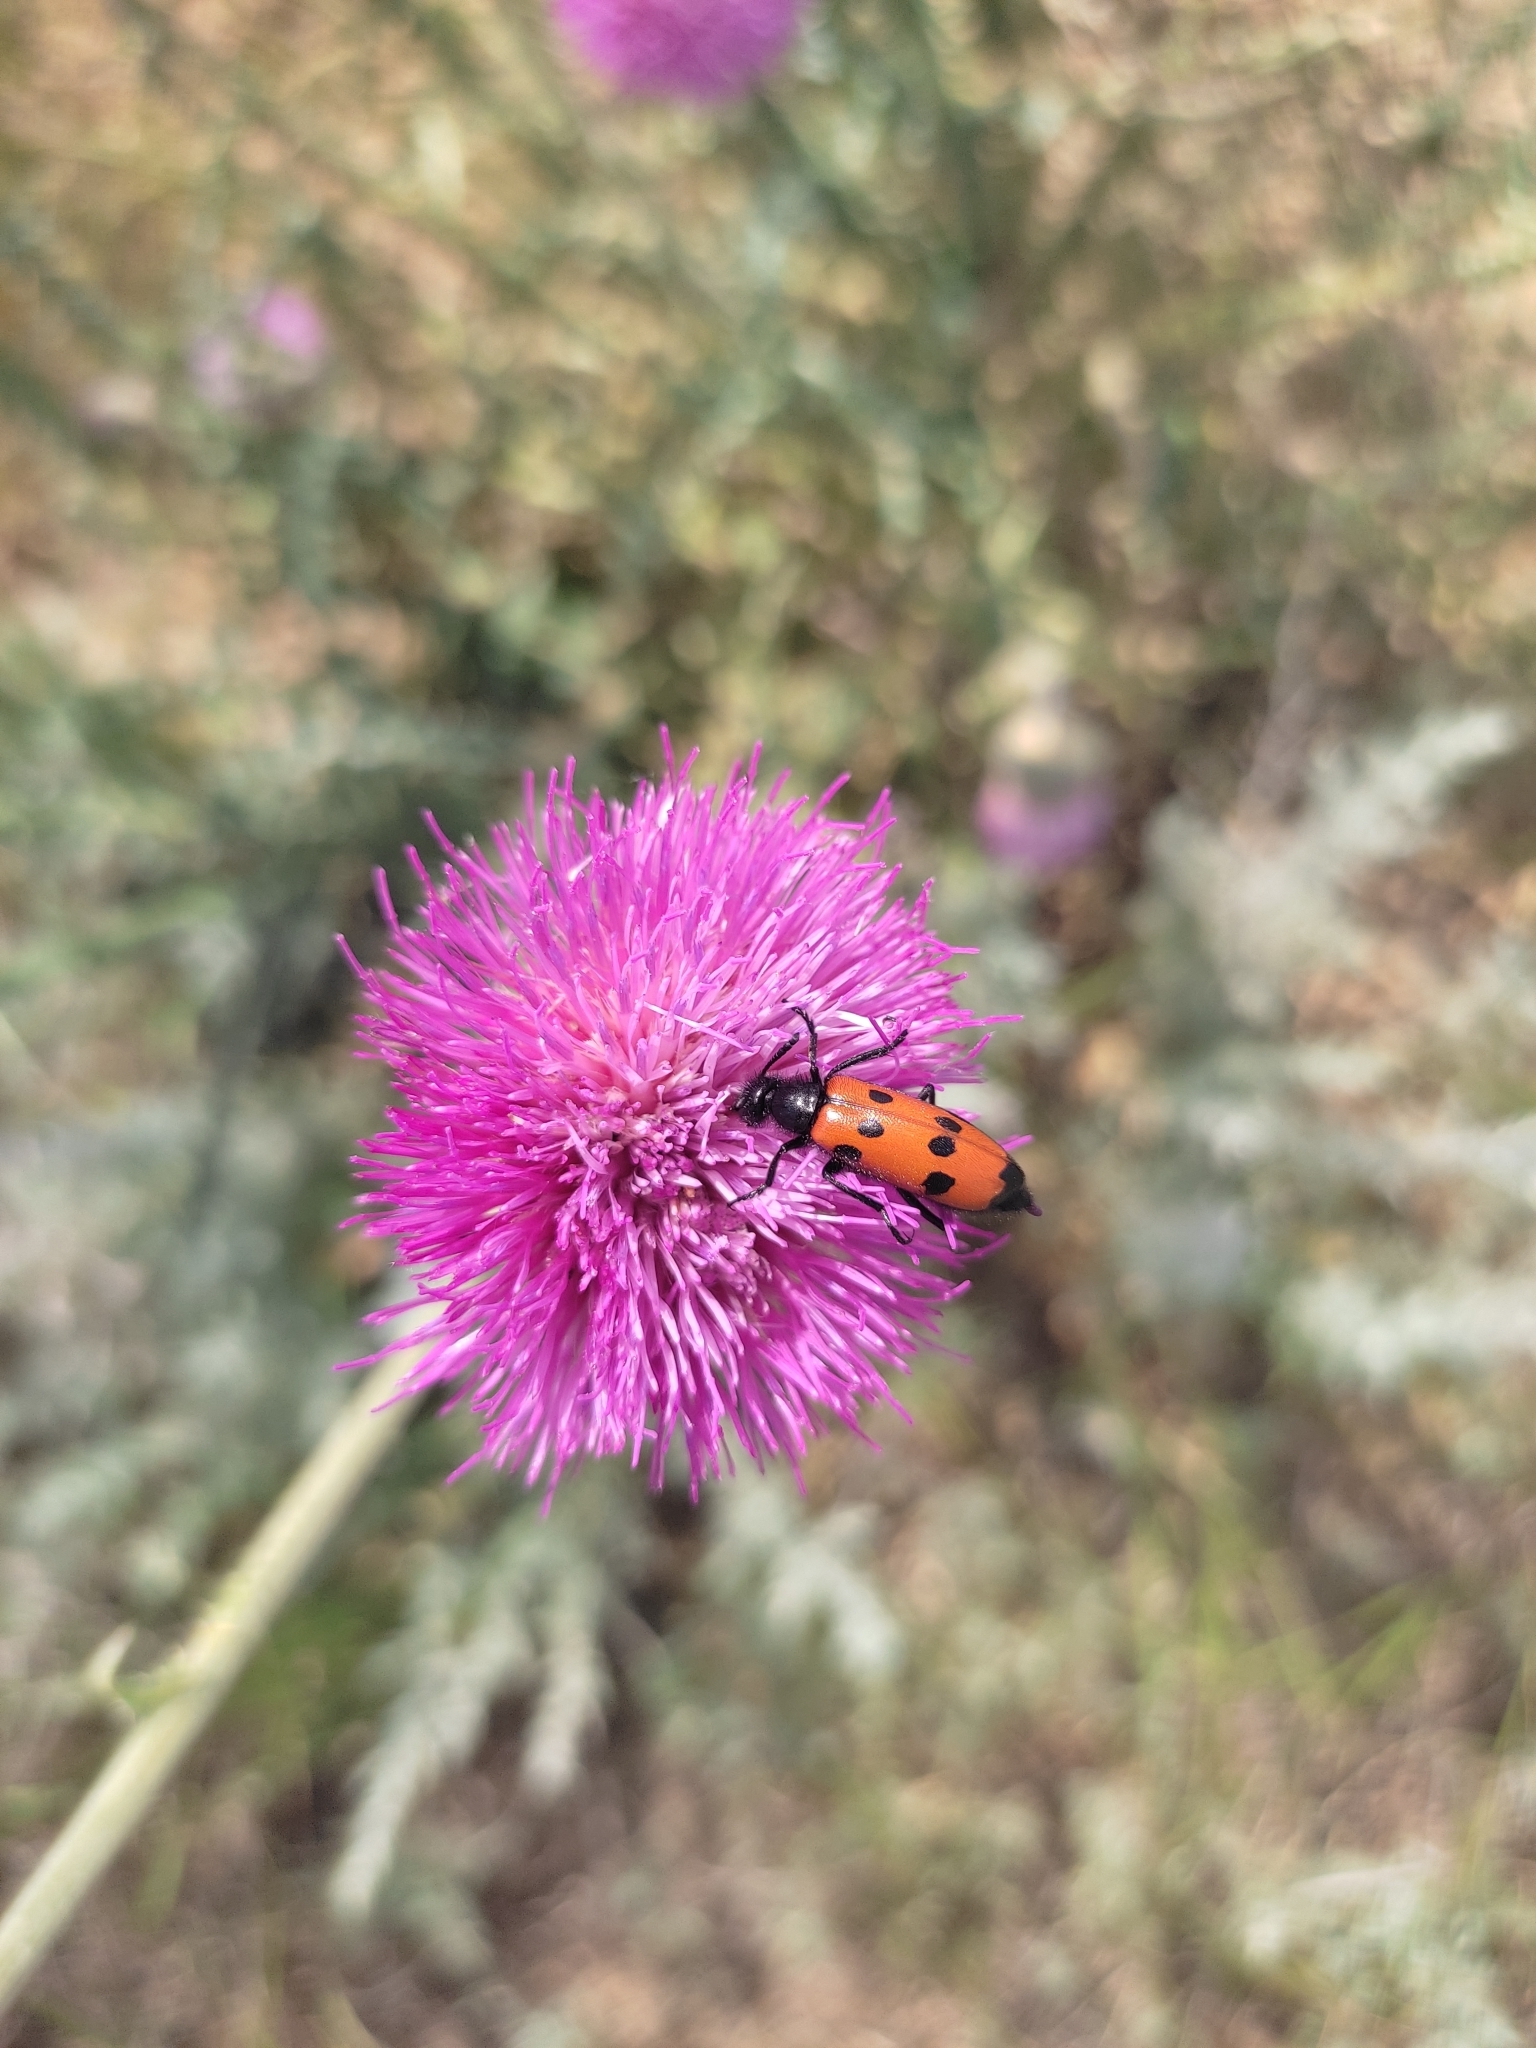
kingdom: Animalia
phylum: Arthropoda
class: Insecta
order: Coleoptera
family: Meloidae
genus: Mylabris
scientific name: Mylabris quadripunctata
